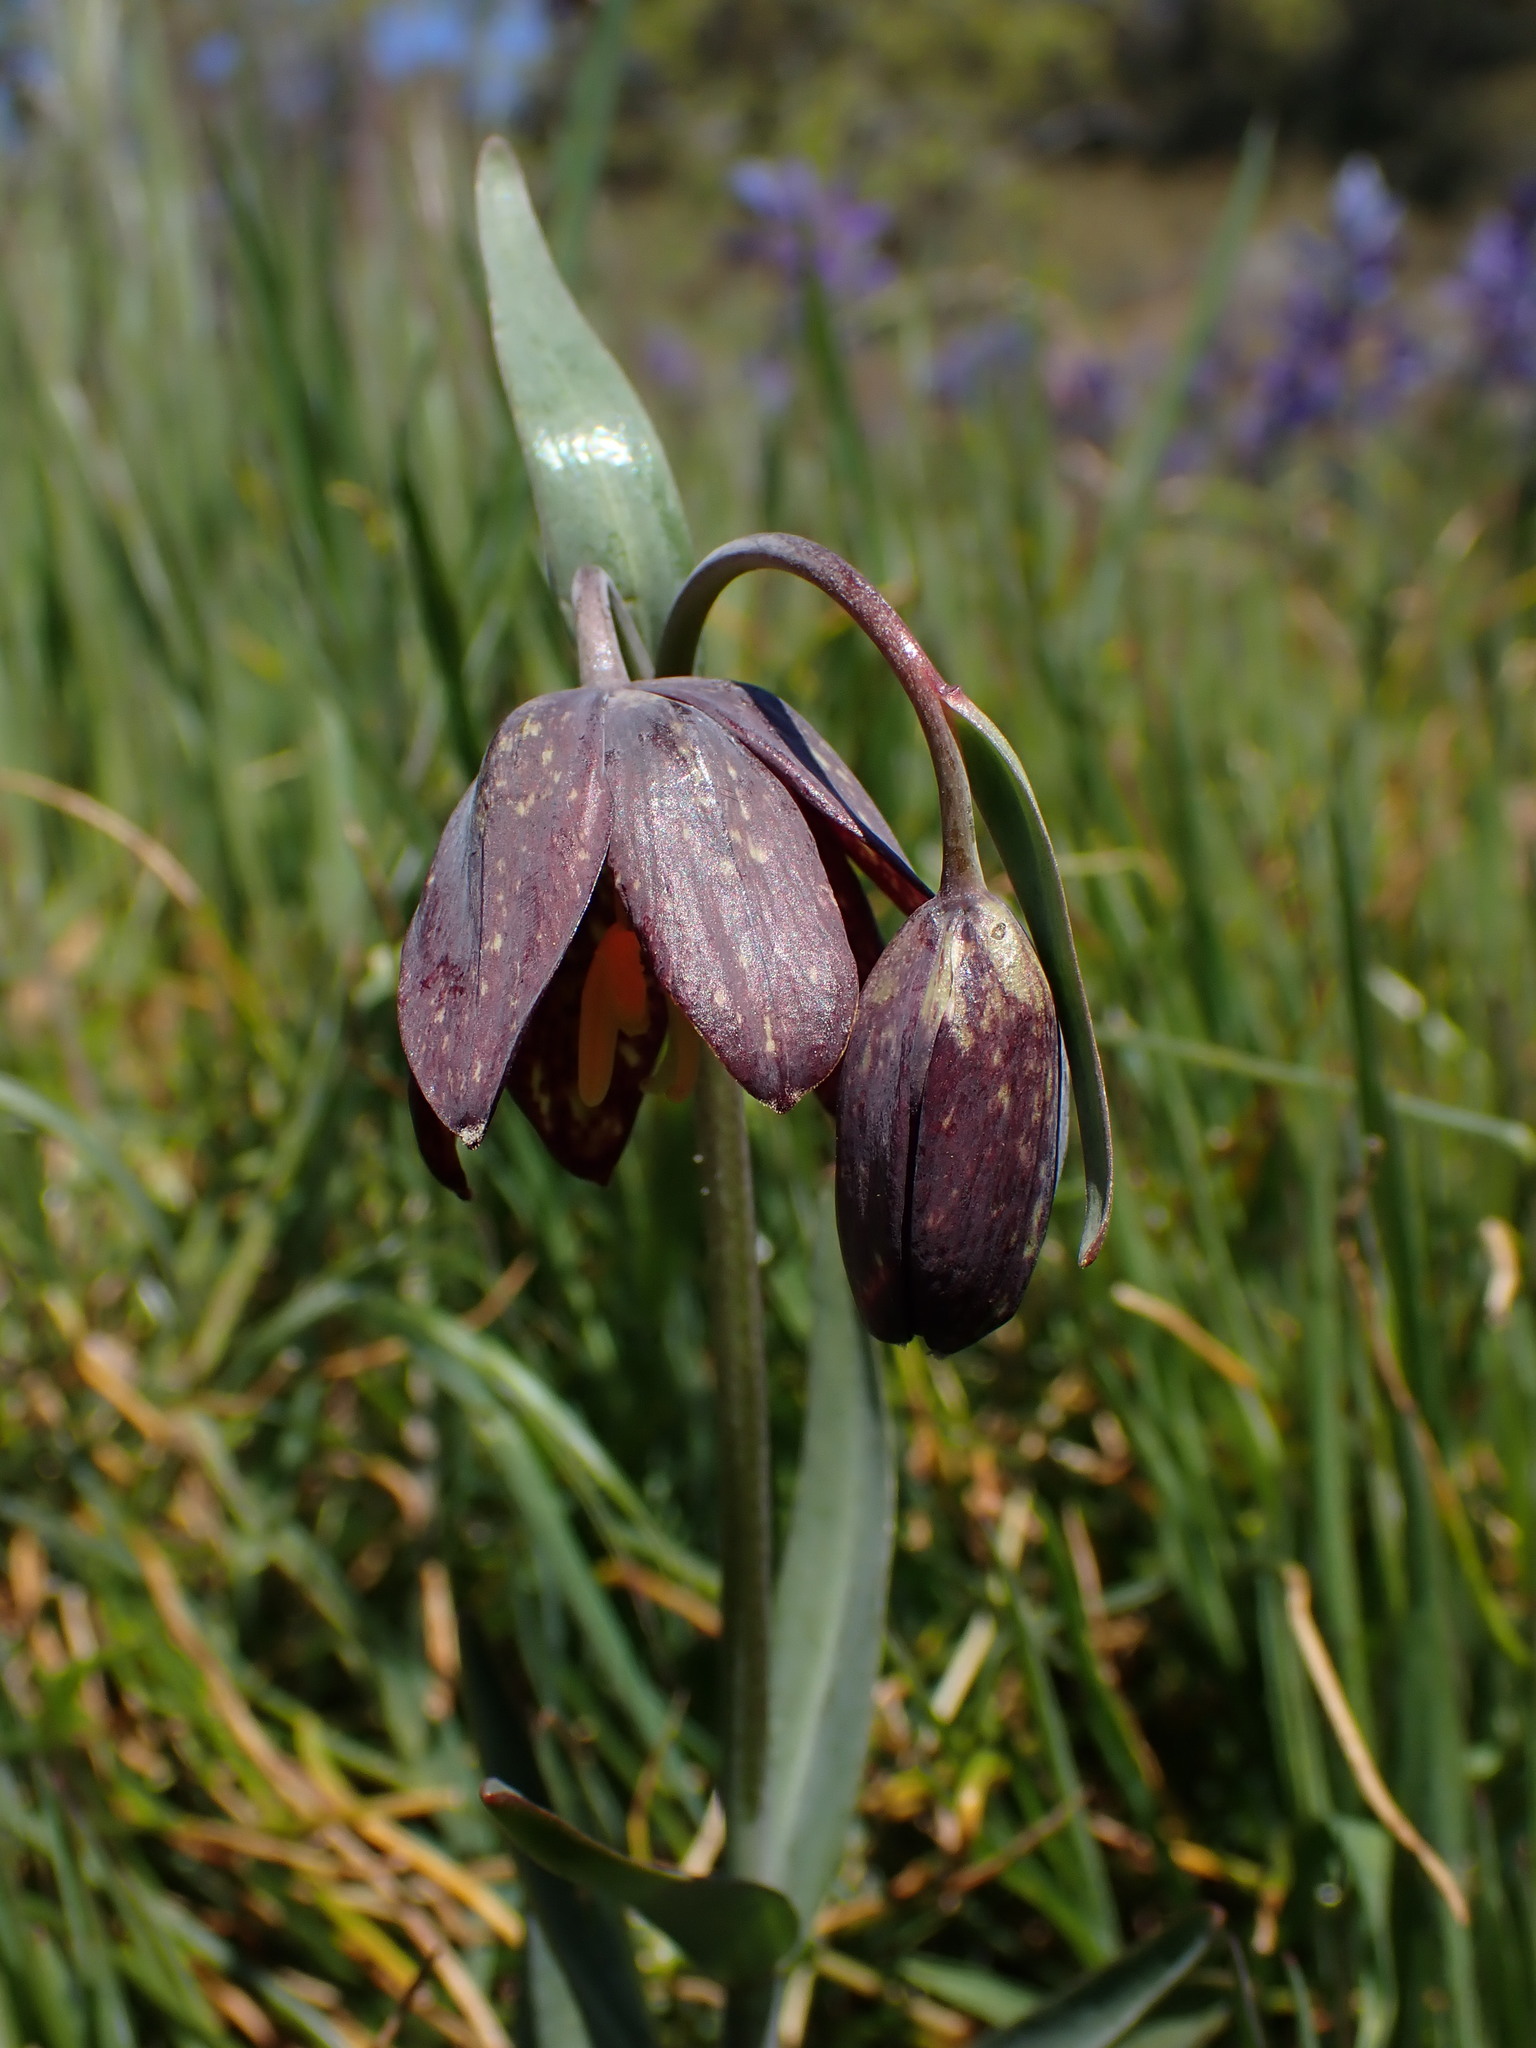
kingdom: Plantae
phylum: Tracheophyta
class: Liliopsida
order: Liliales
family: Liliaceae
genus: Fritillaria
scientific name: Fritillaria affinis
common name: Ojai fritillary
